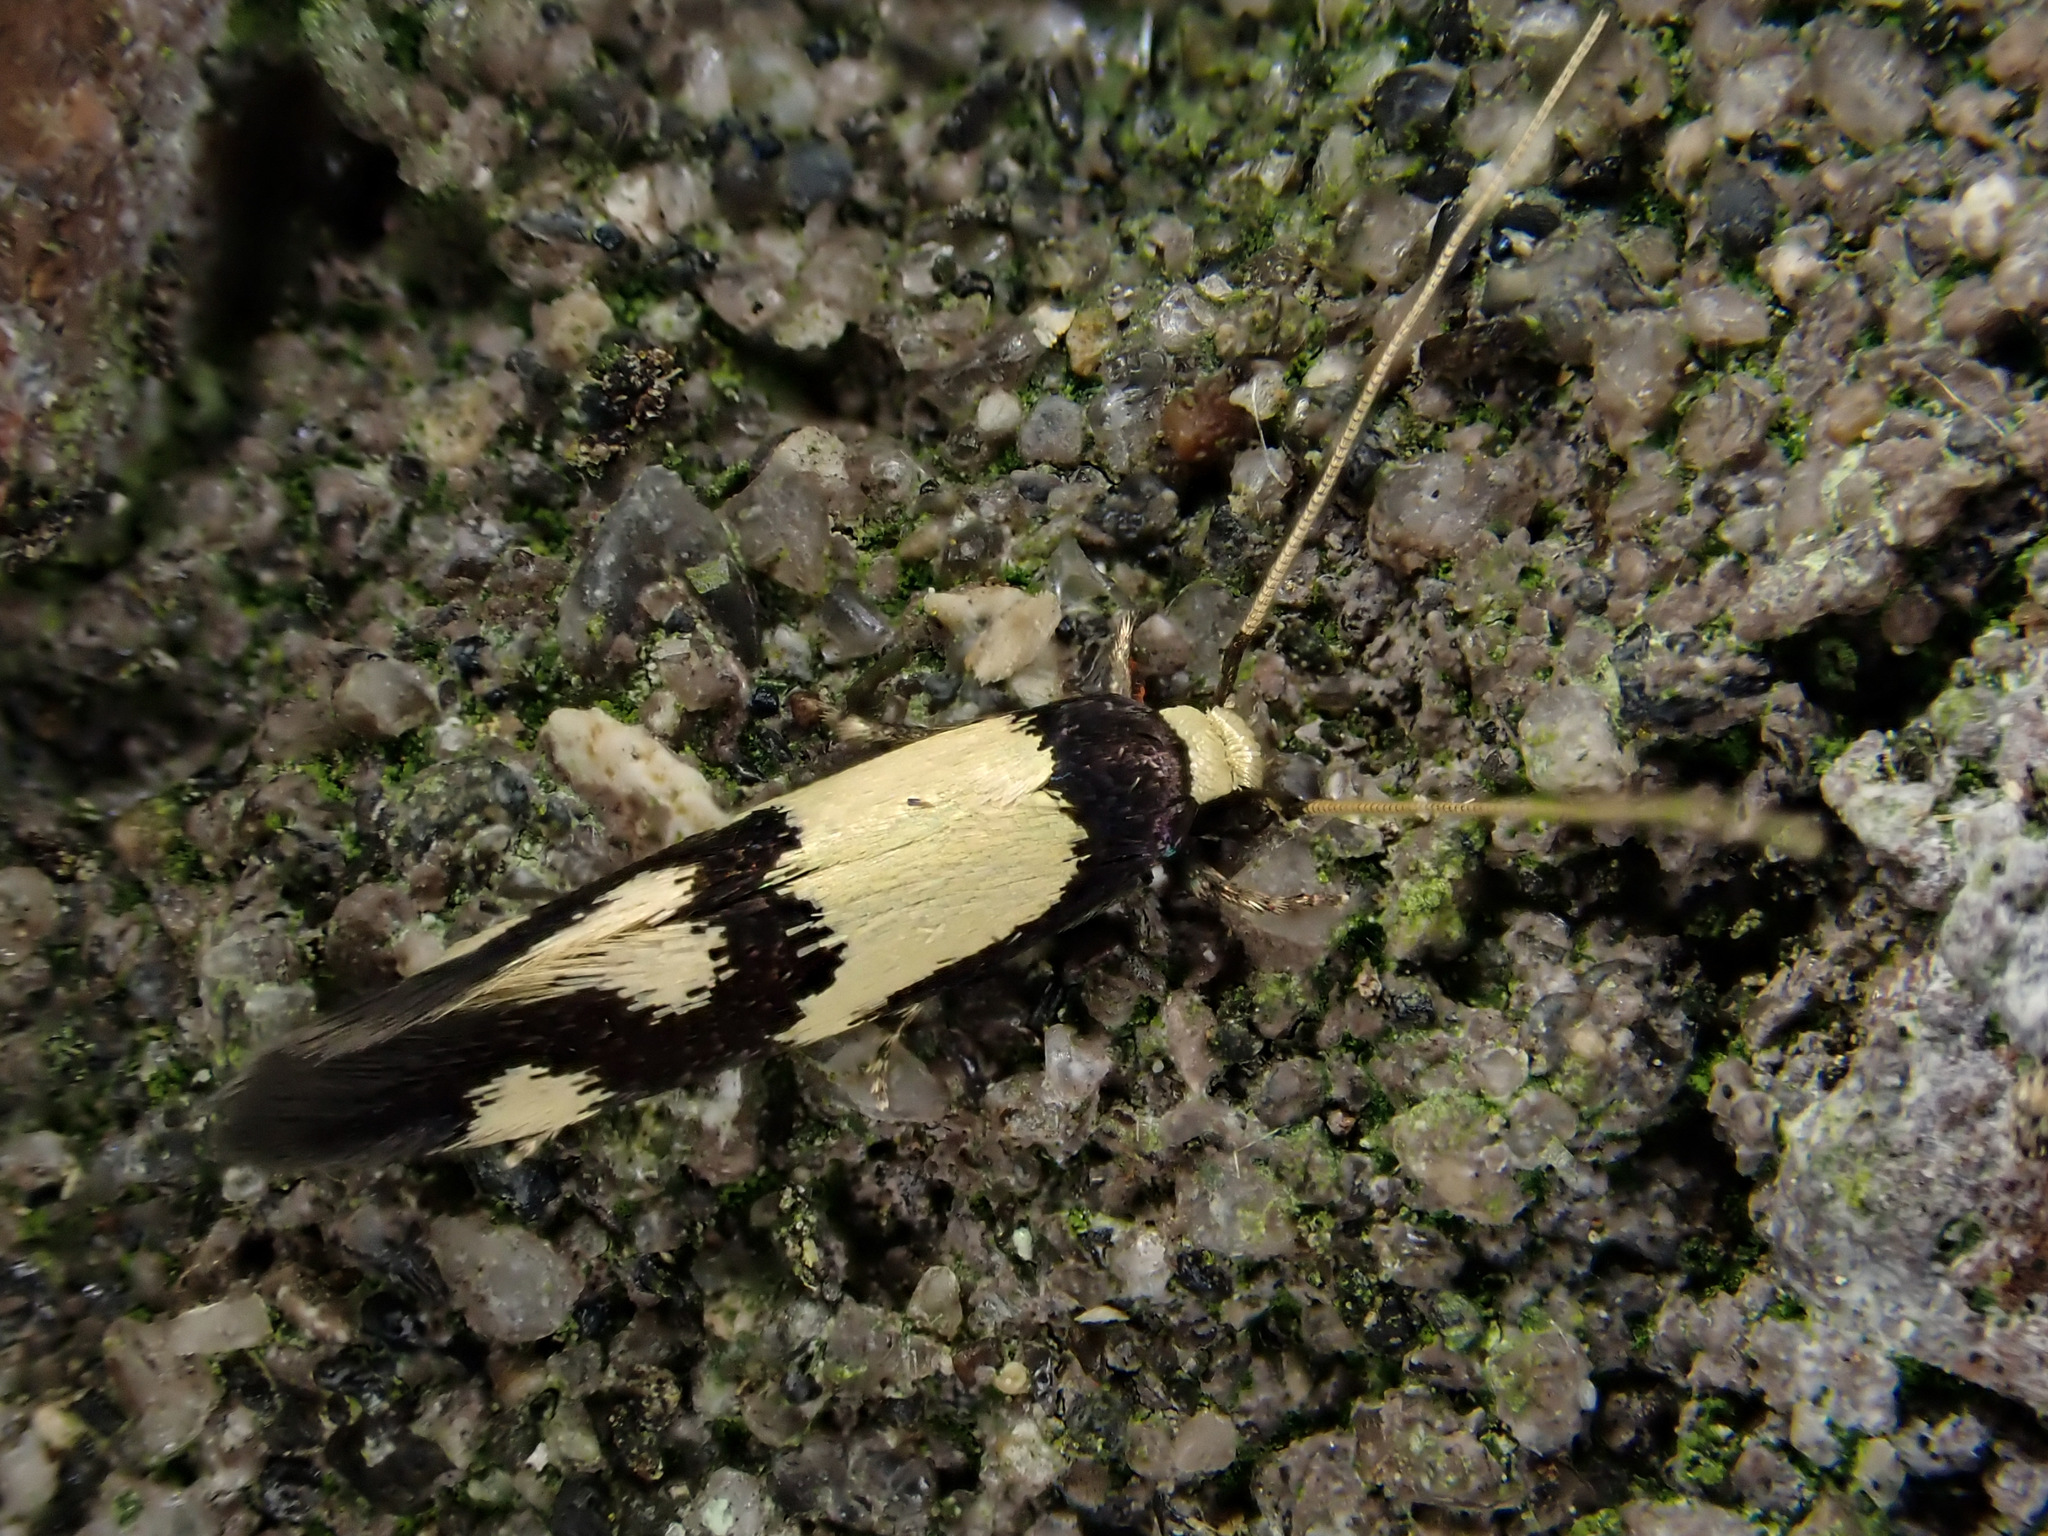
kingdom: Animalia
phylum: Arthropoda
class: Insecta
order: Lepidoptera
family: Tineidae
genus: Opogona
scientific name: Opogona comptella
